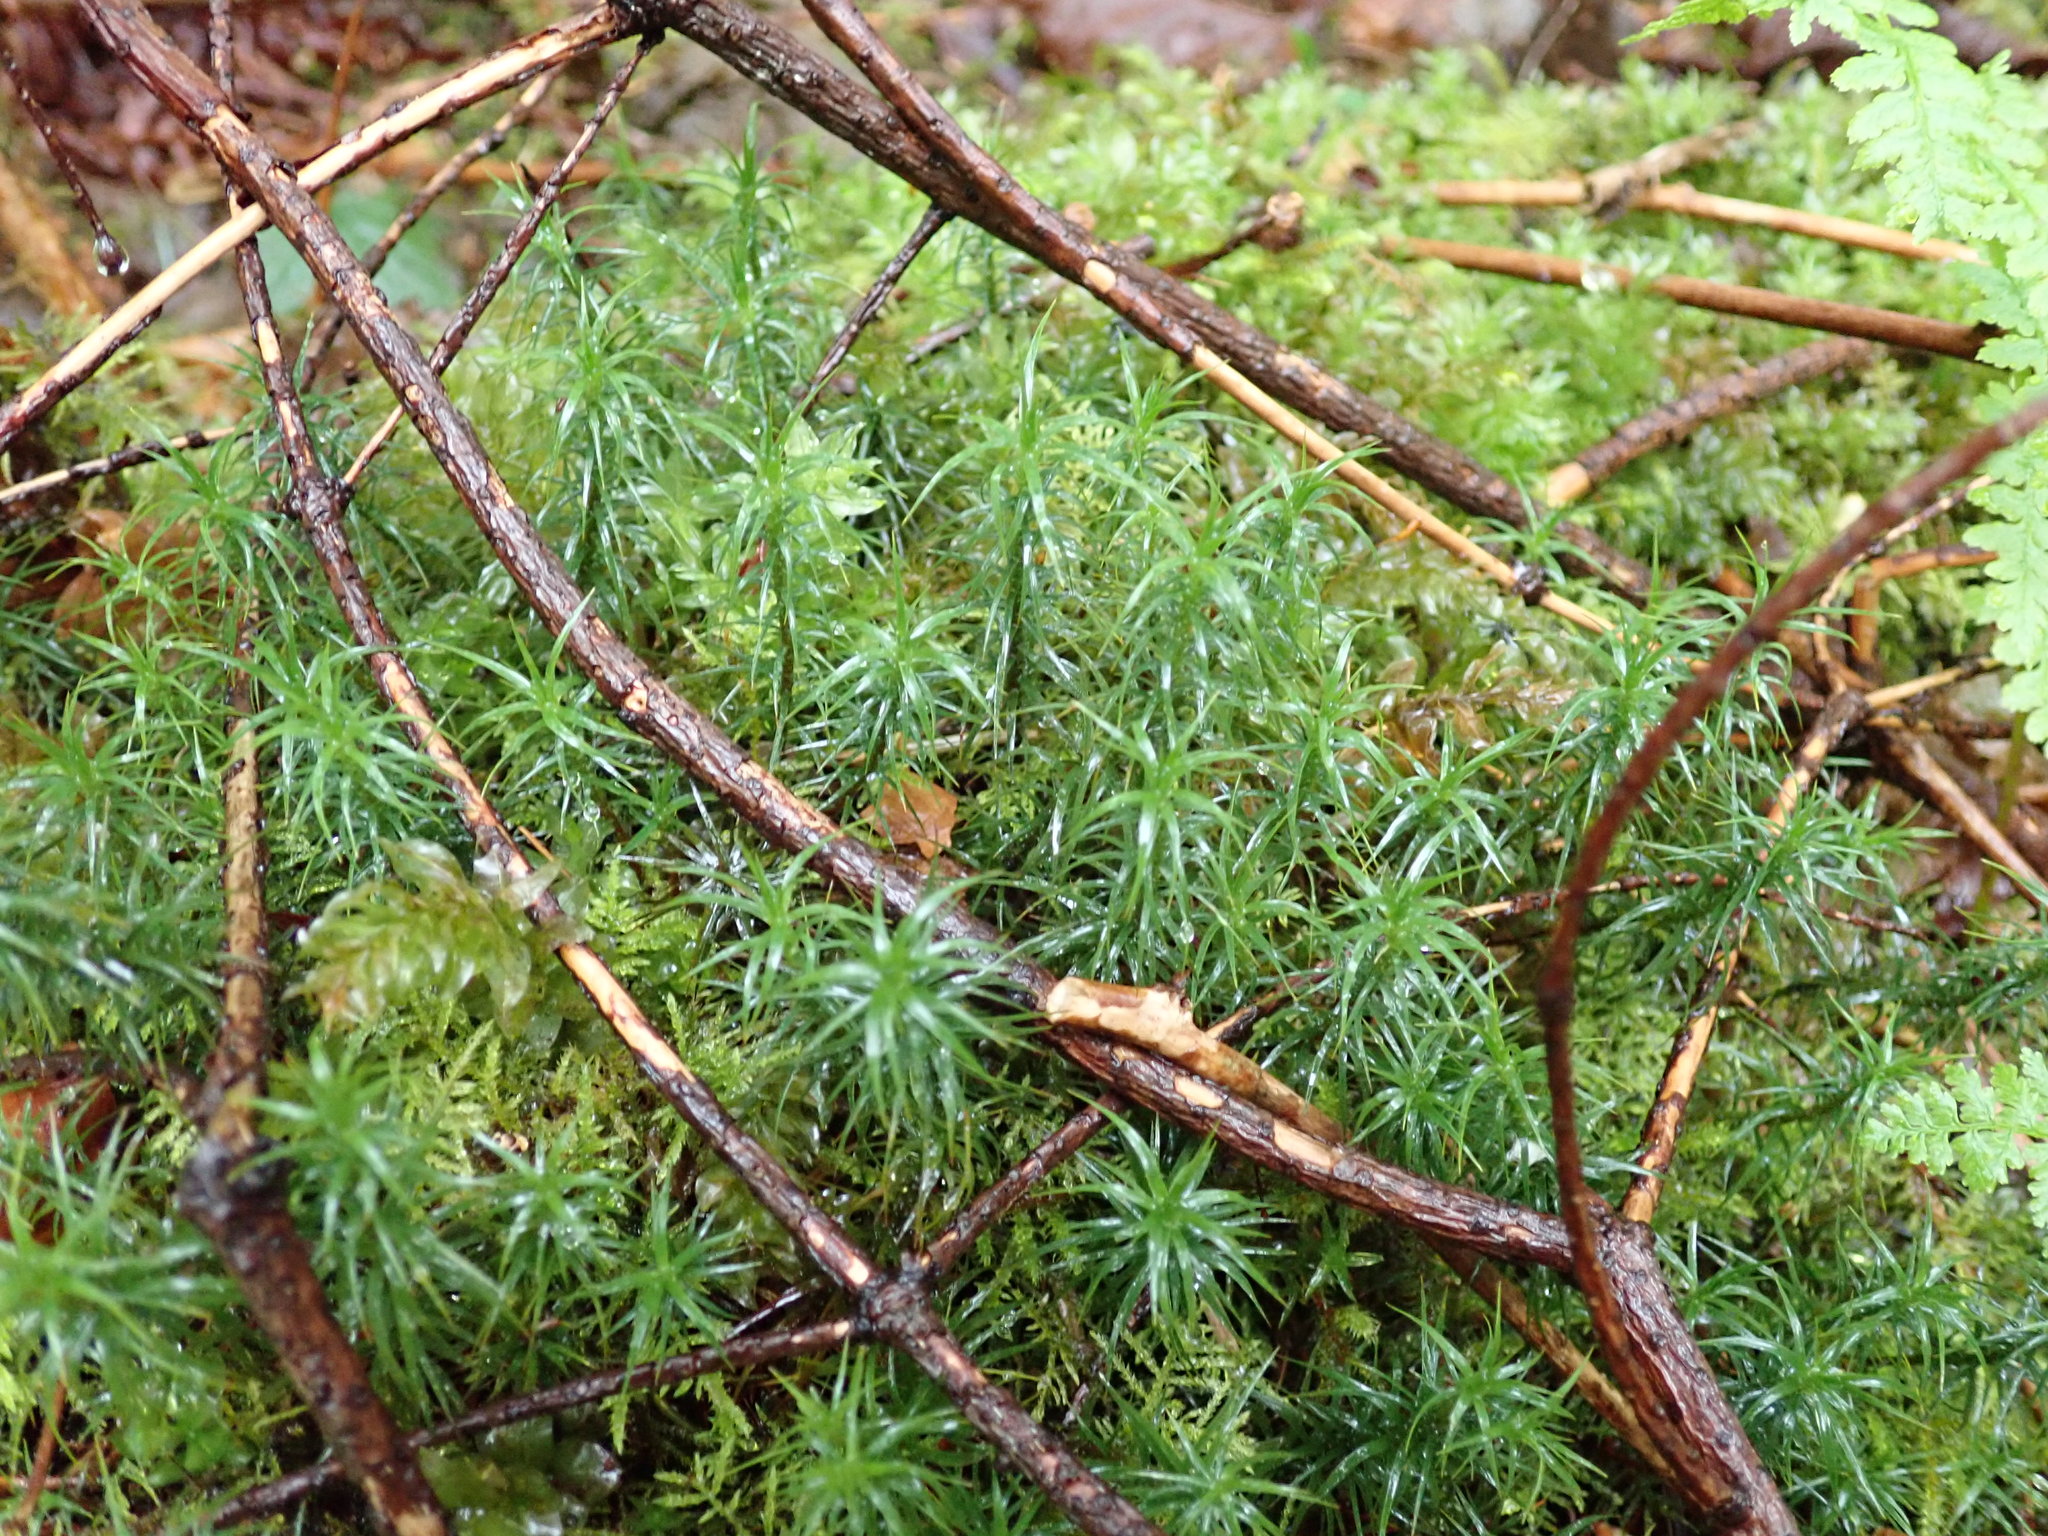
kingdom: Plantae
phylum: Bryophyta
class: Polytrichopsida
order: Polytrichales
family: Polytrichaceae
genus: Polytrichastrum
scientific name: Polytrichastrum alpinum
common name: Alpine haircap
